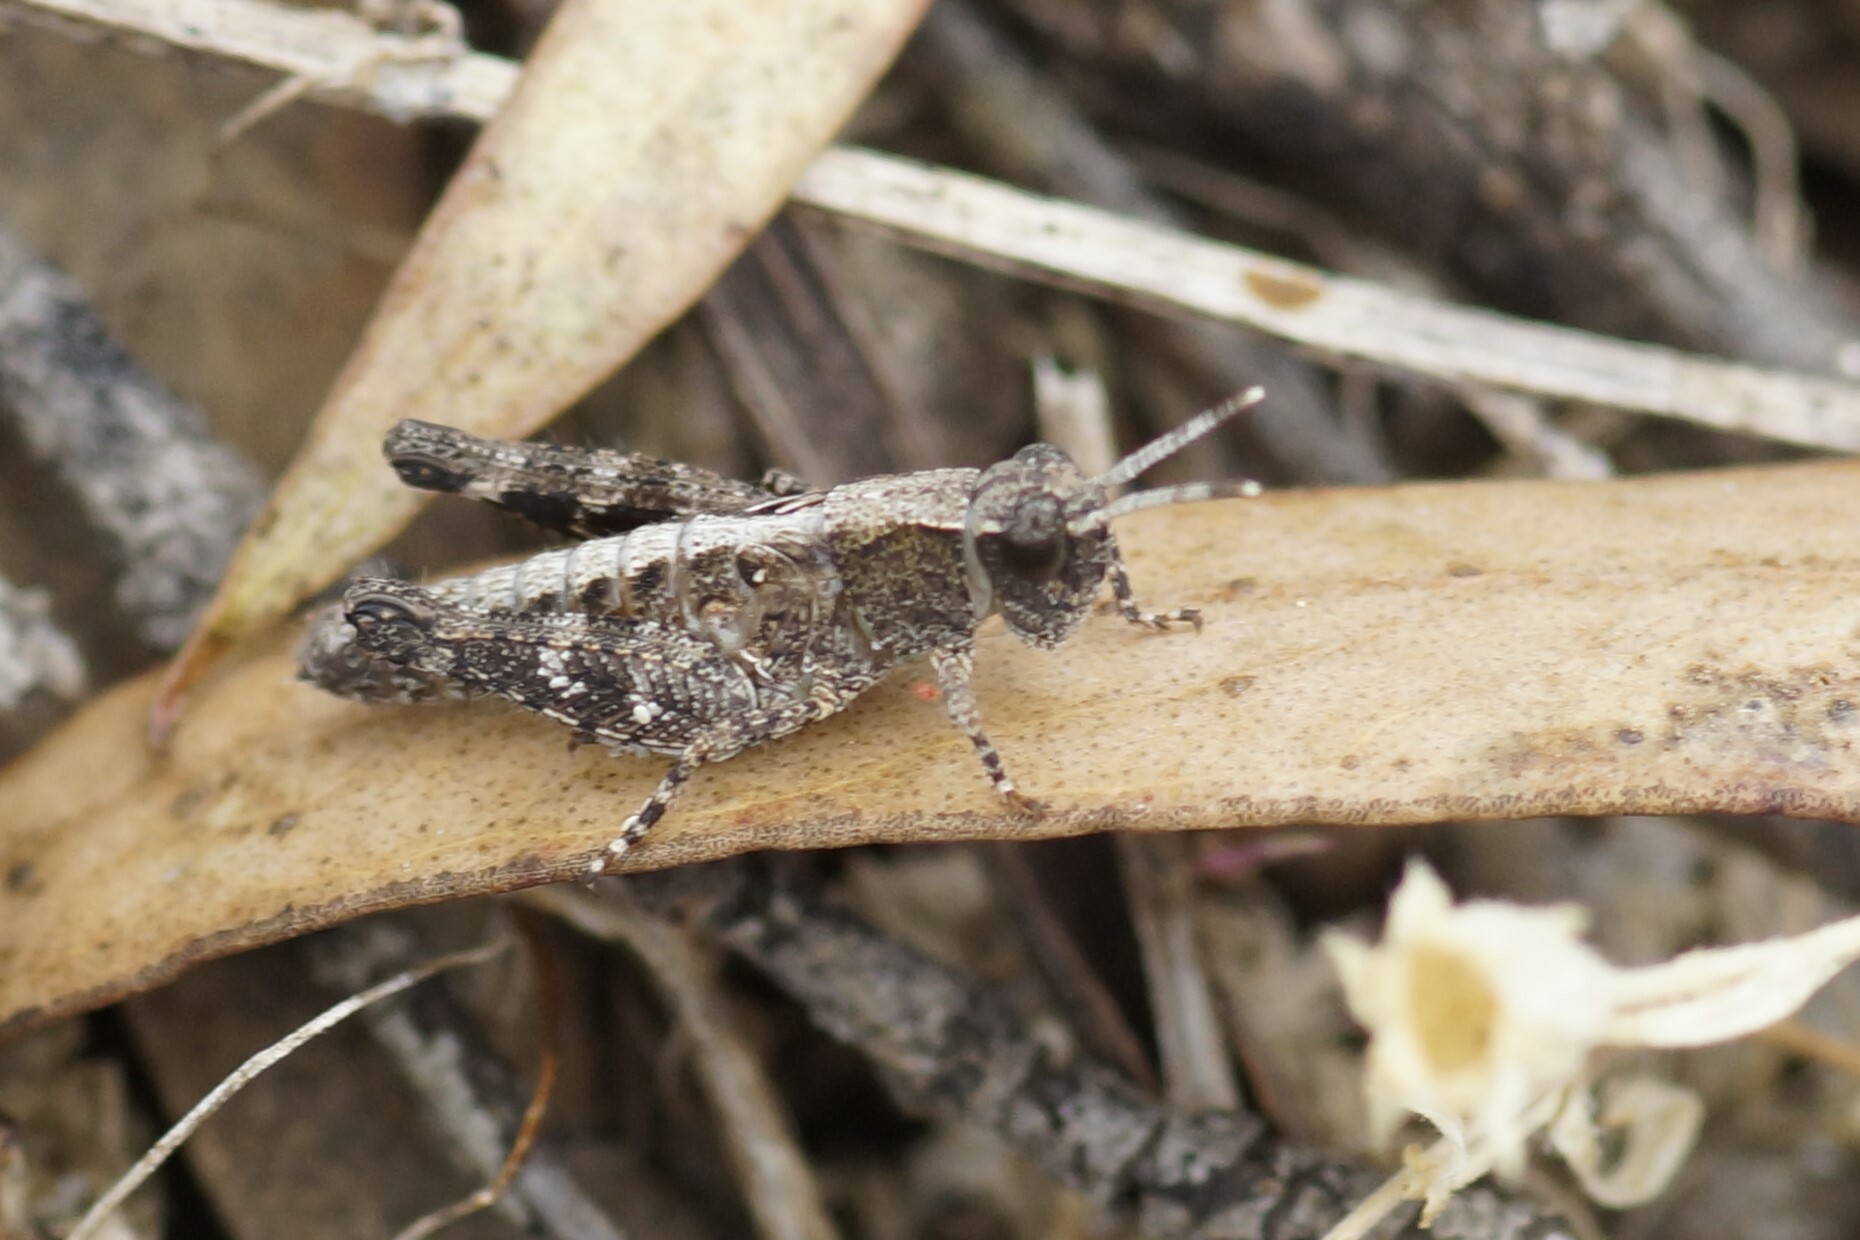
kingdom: Animalia
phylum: Arthropoda
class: Insecta
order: Orthoptera
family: Acrididae
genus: Phaulacridium
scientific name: Phaulacridium vittatum
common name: Wingless grasshopper
